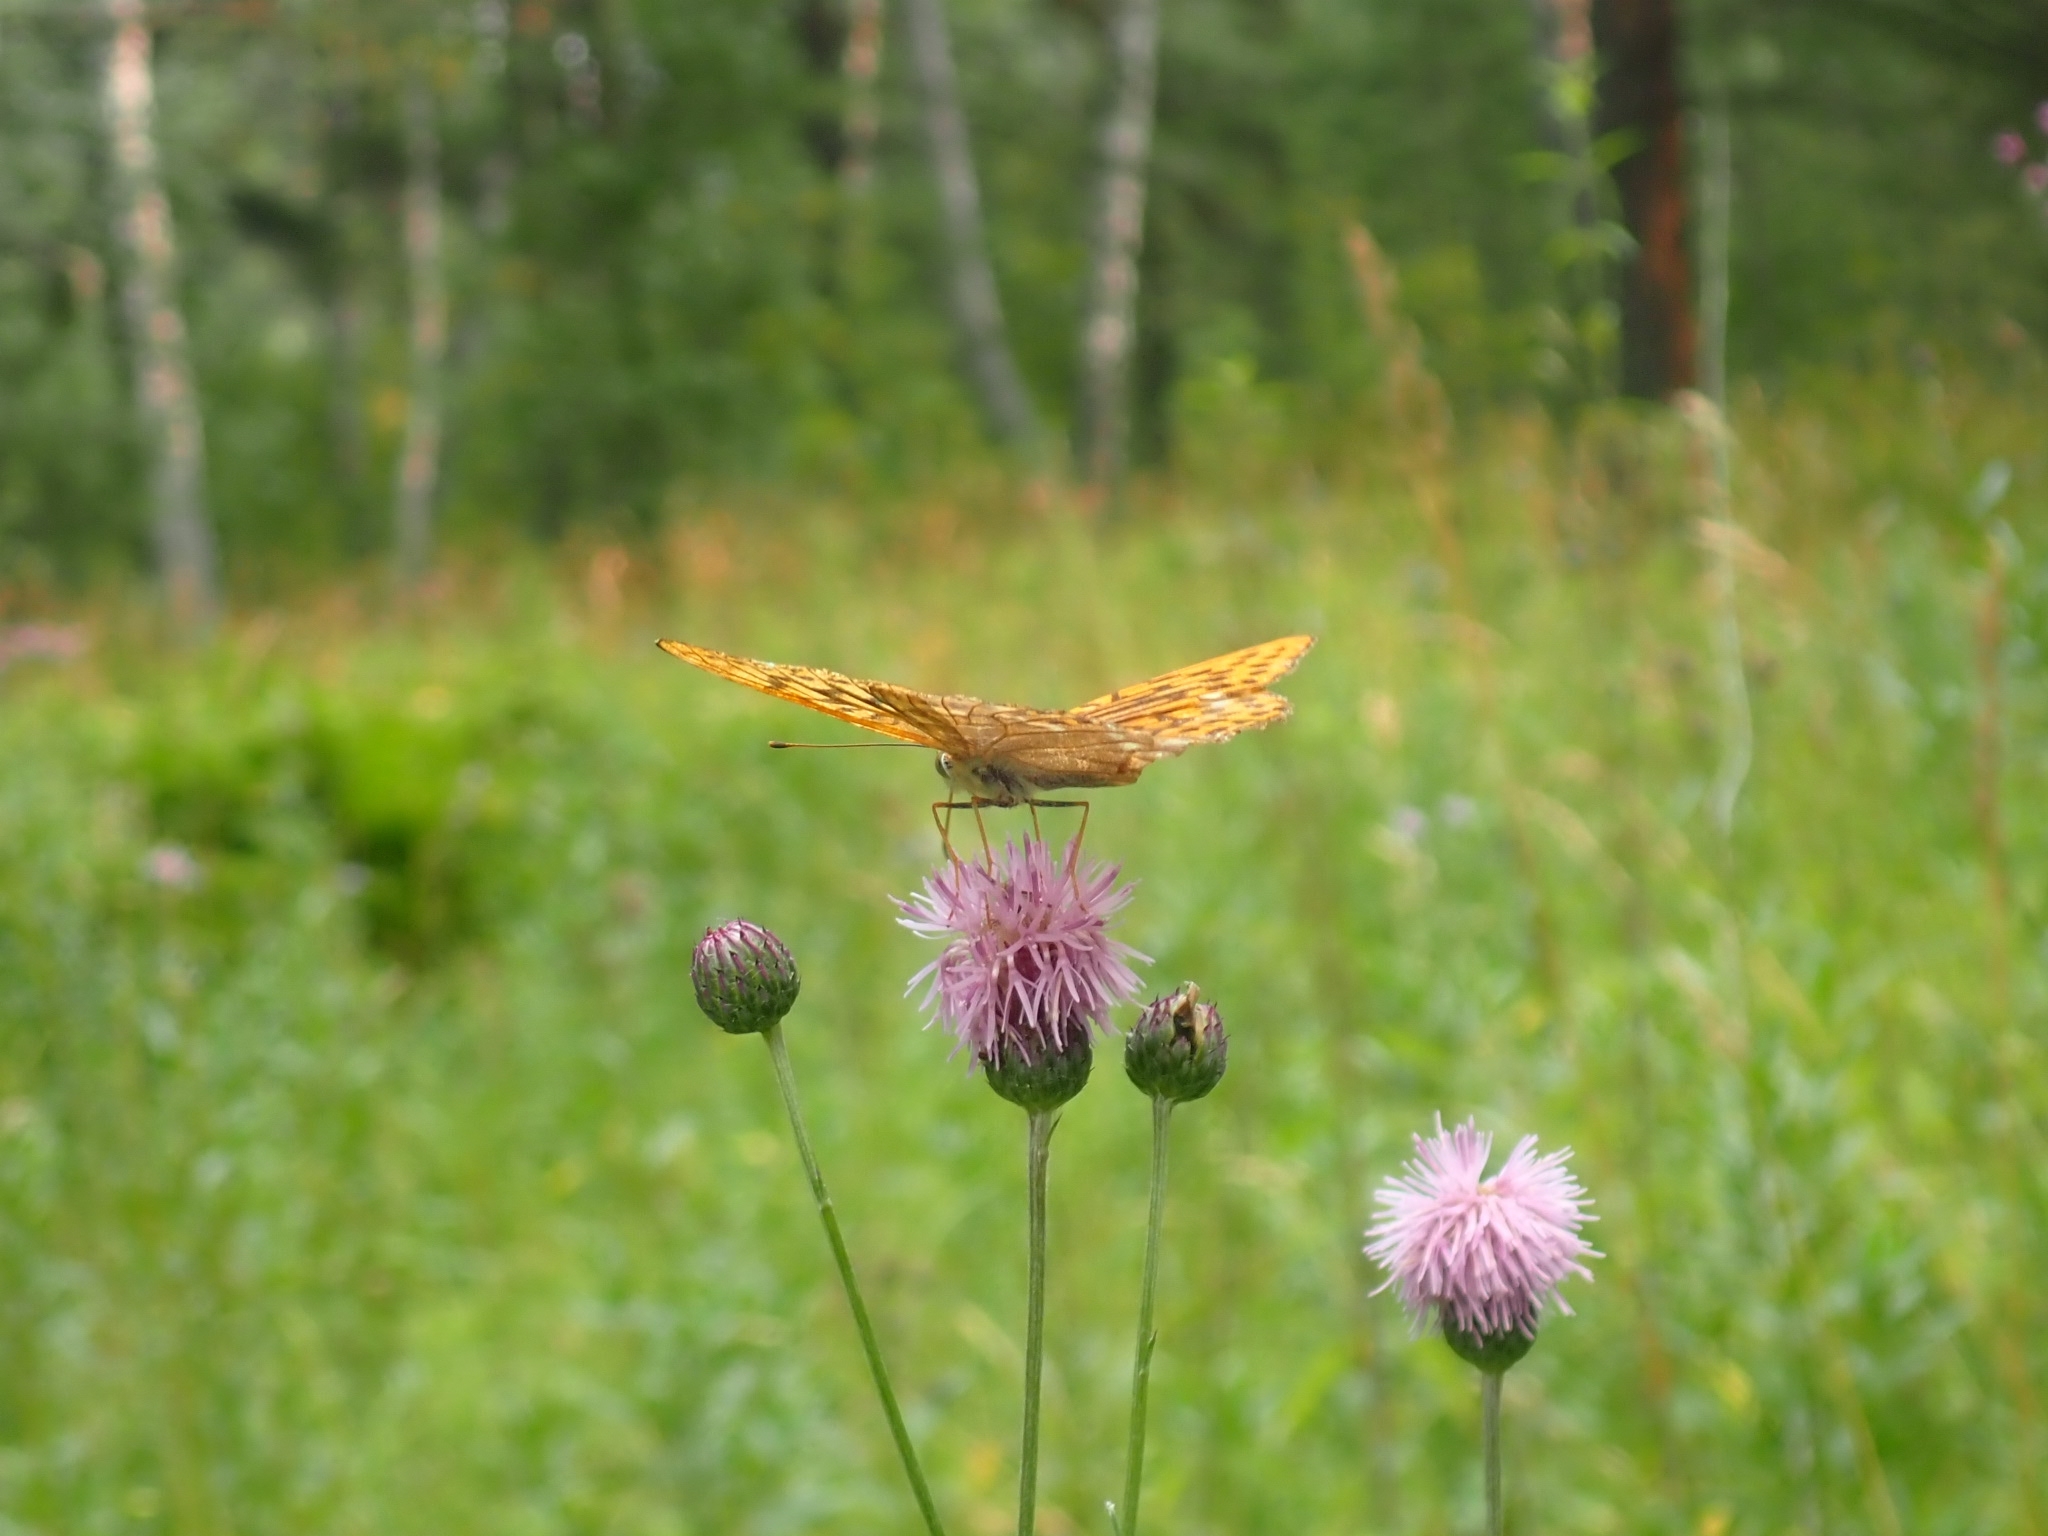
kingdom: Animalia
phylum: Arthropoda
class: Insecta
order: Lepidoptera
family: Nymphalidae
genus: Argynnis
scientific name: Argynnis paphia
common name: Silver-washed fritillary
